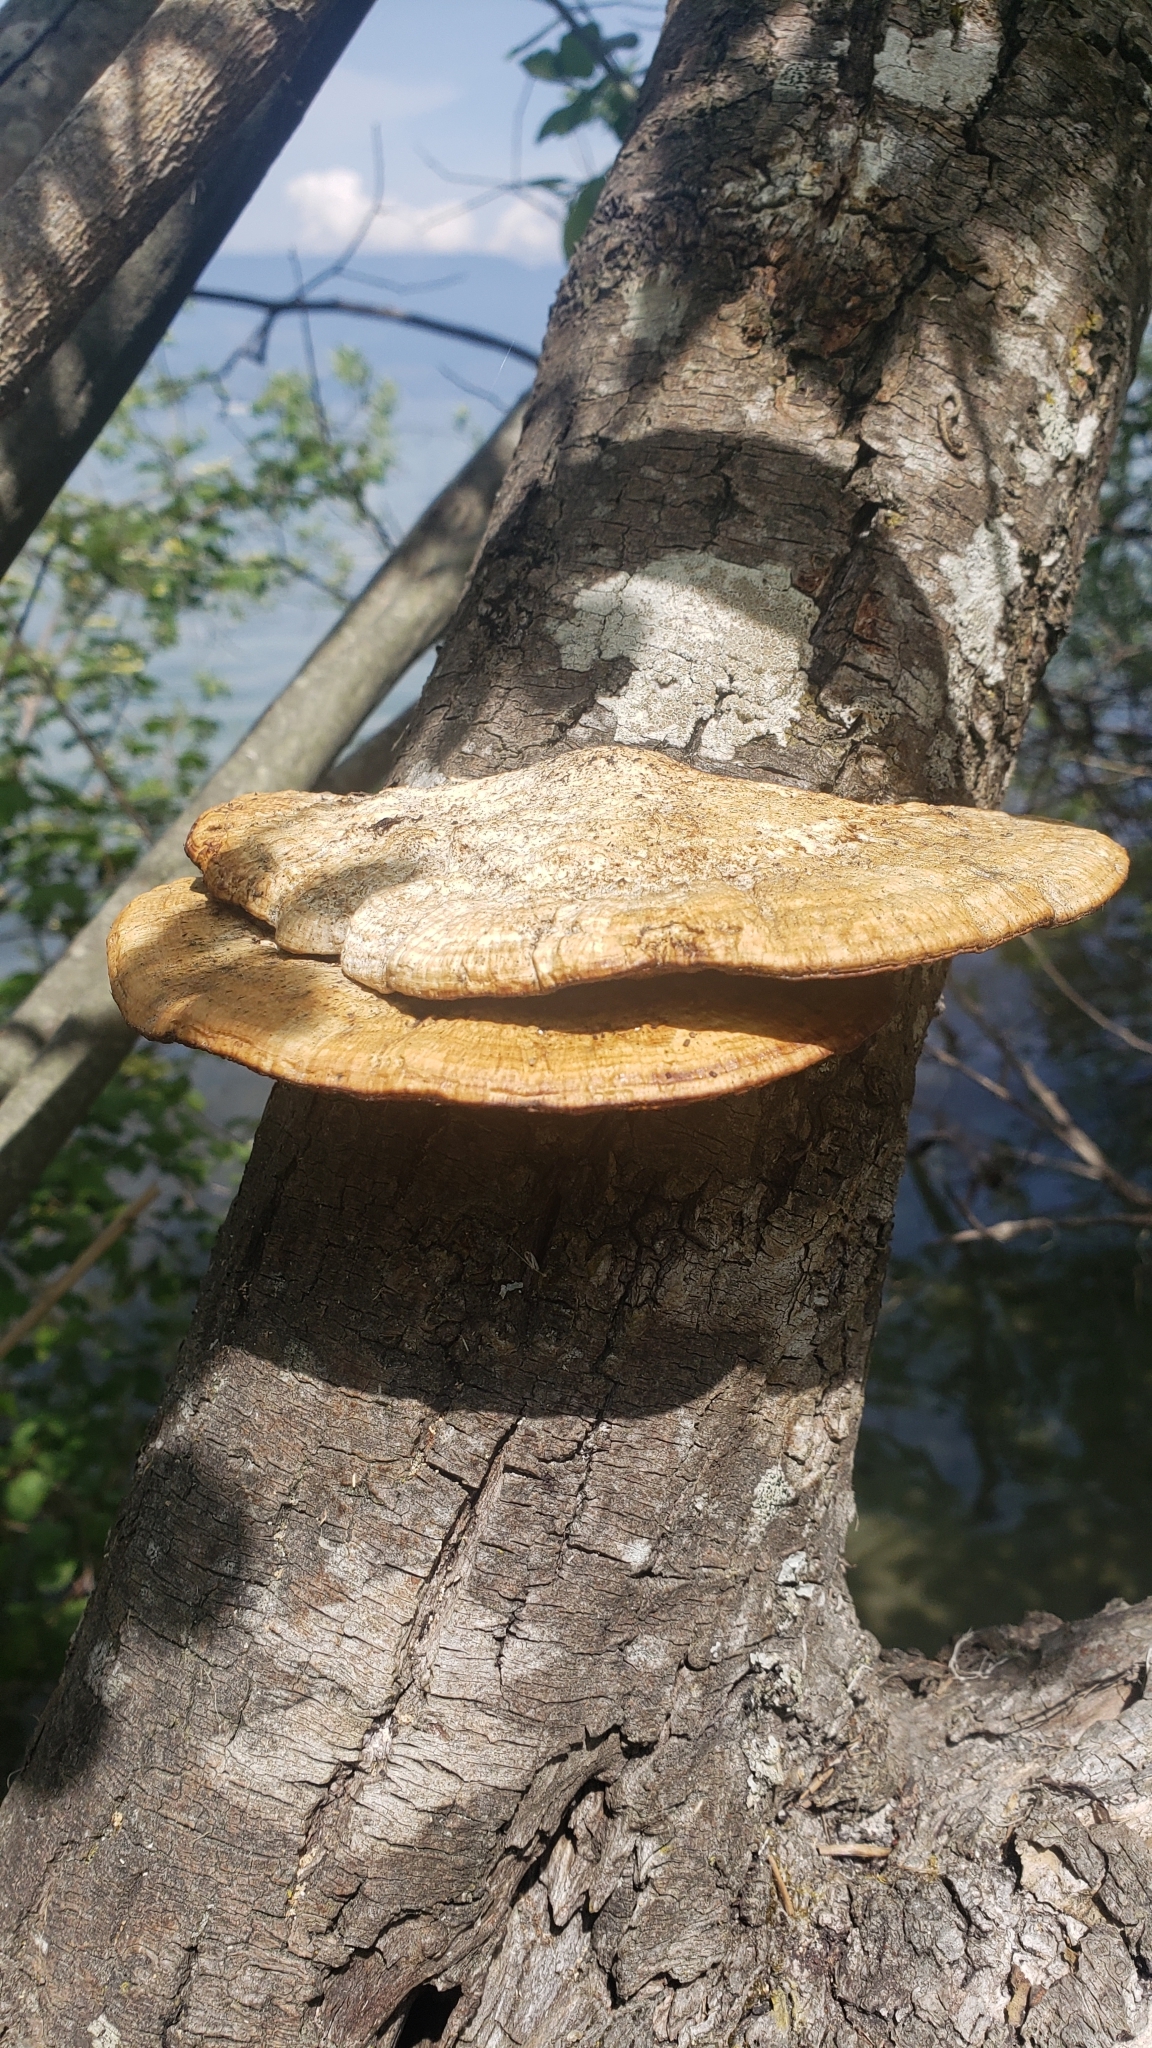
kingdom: Fungi
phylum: Basidiomycota
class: Agaricomycetes
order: Polyporales
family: Polyporaceae
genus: Daedaleopsis
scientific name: Daedaleopsis confragosa
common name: Blushing bracket
